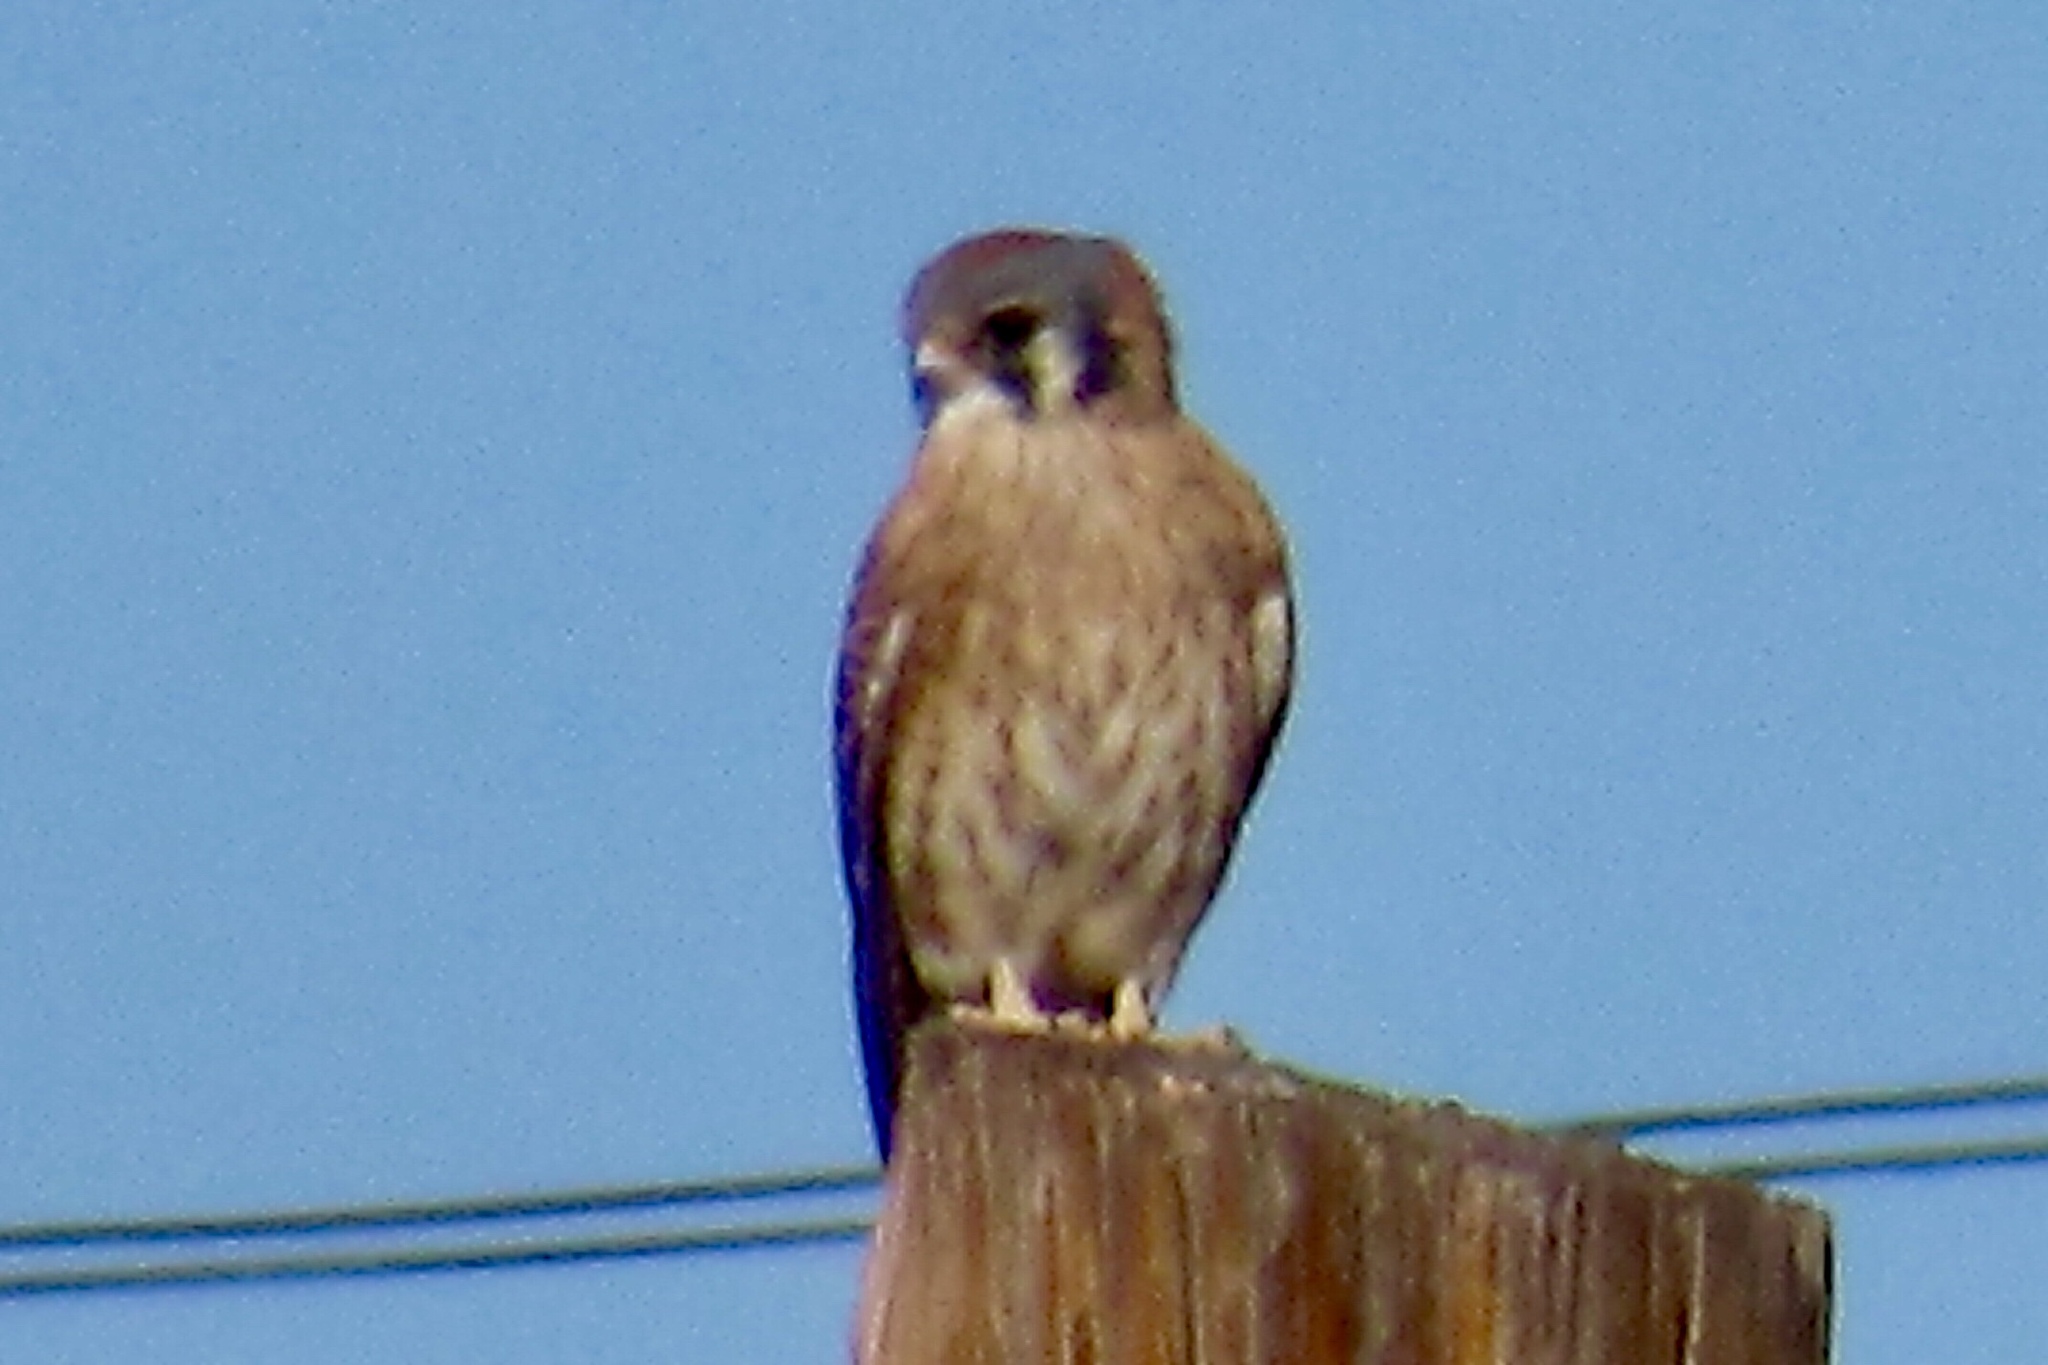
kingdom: Animalia
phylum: Chordata
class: Aves
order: Falconiformes
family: Falconidae
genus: Falco
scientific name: Falco sparverius
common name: American kestrel
